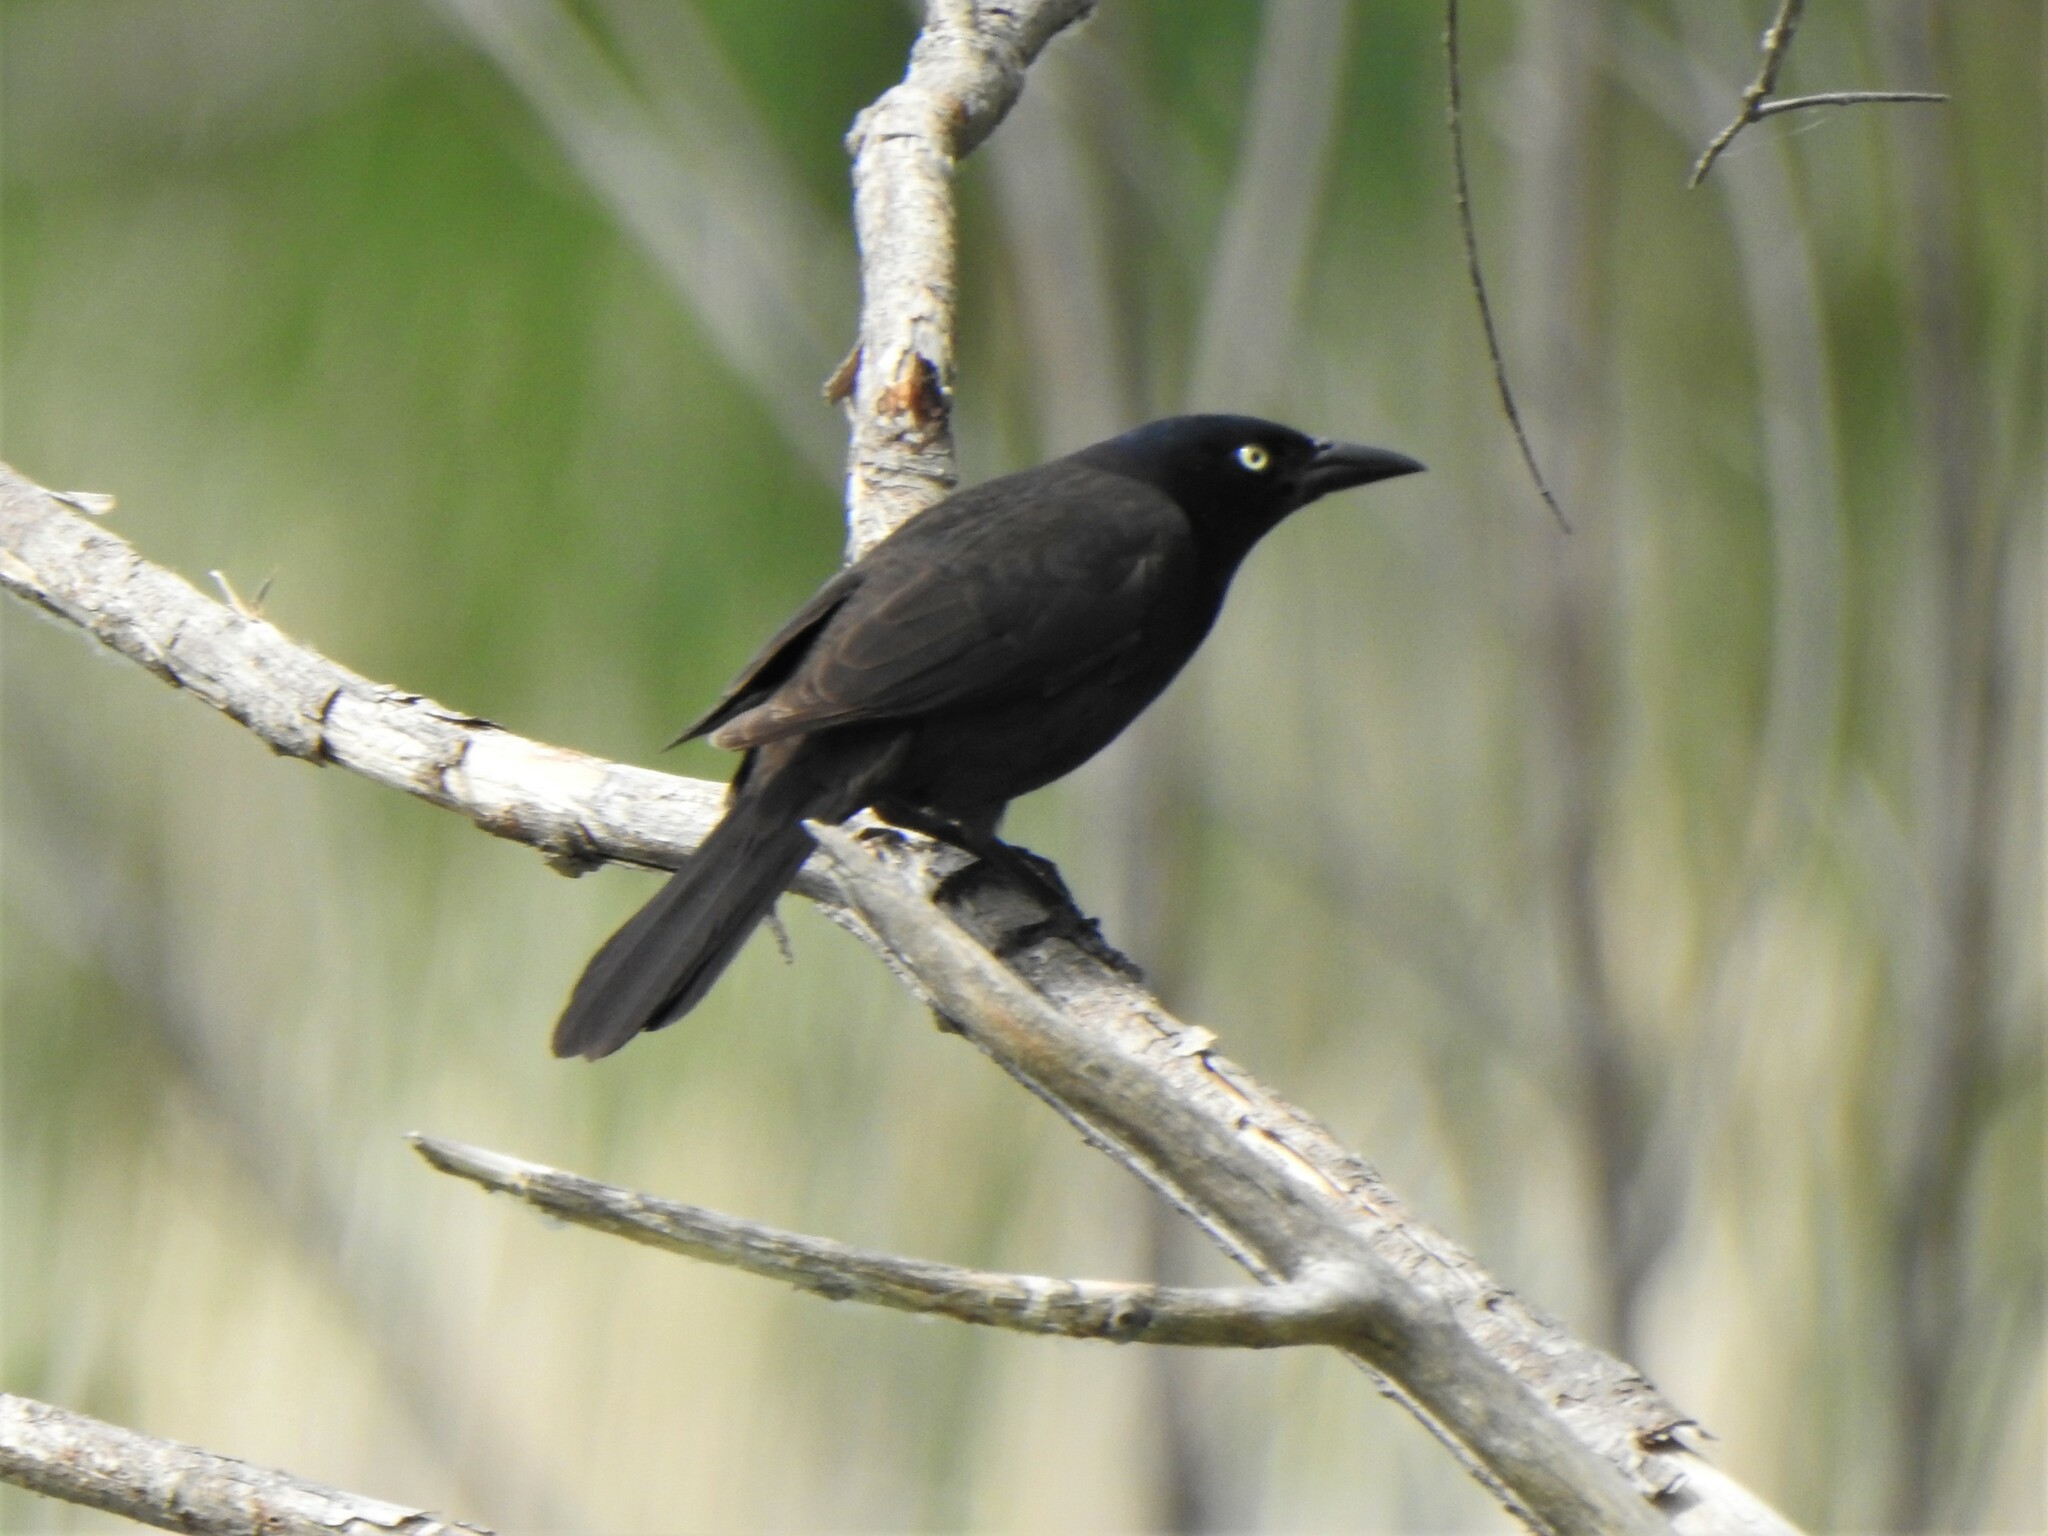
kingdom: Animalia
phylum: Chordata
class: Aves
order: Passeriformes
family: Icteridae
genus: Quiscalus
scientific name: Quiscalus quiscula
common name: Common grackle
